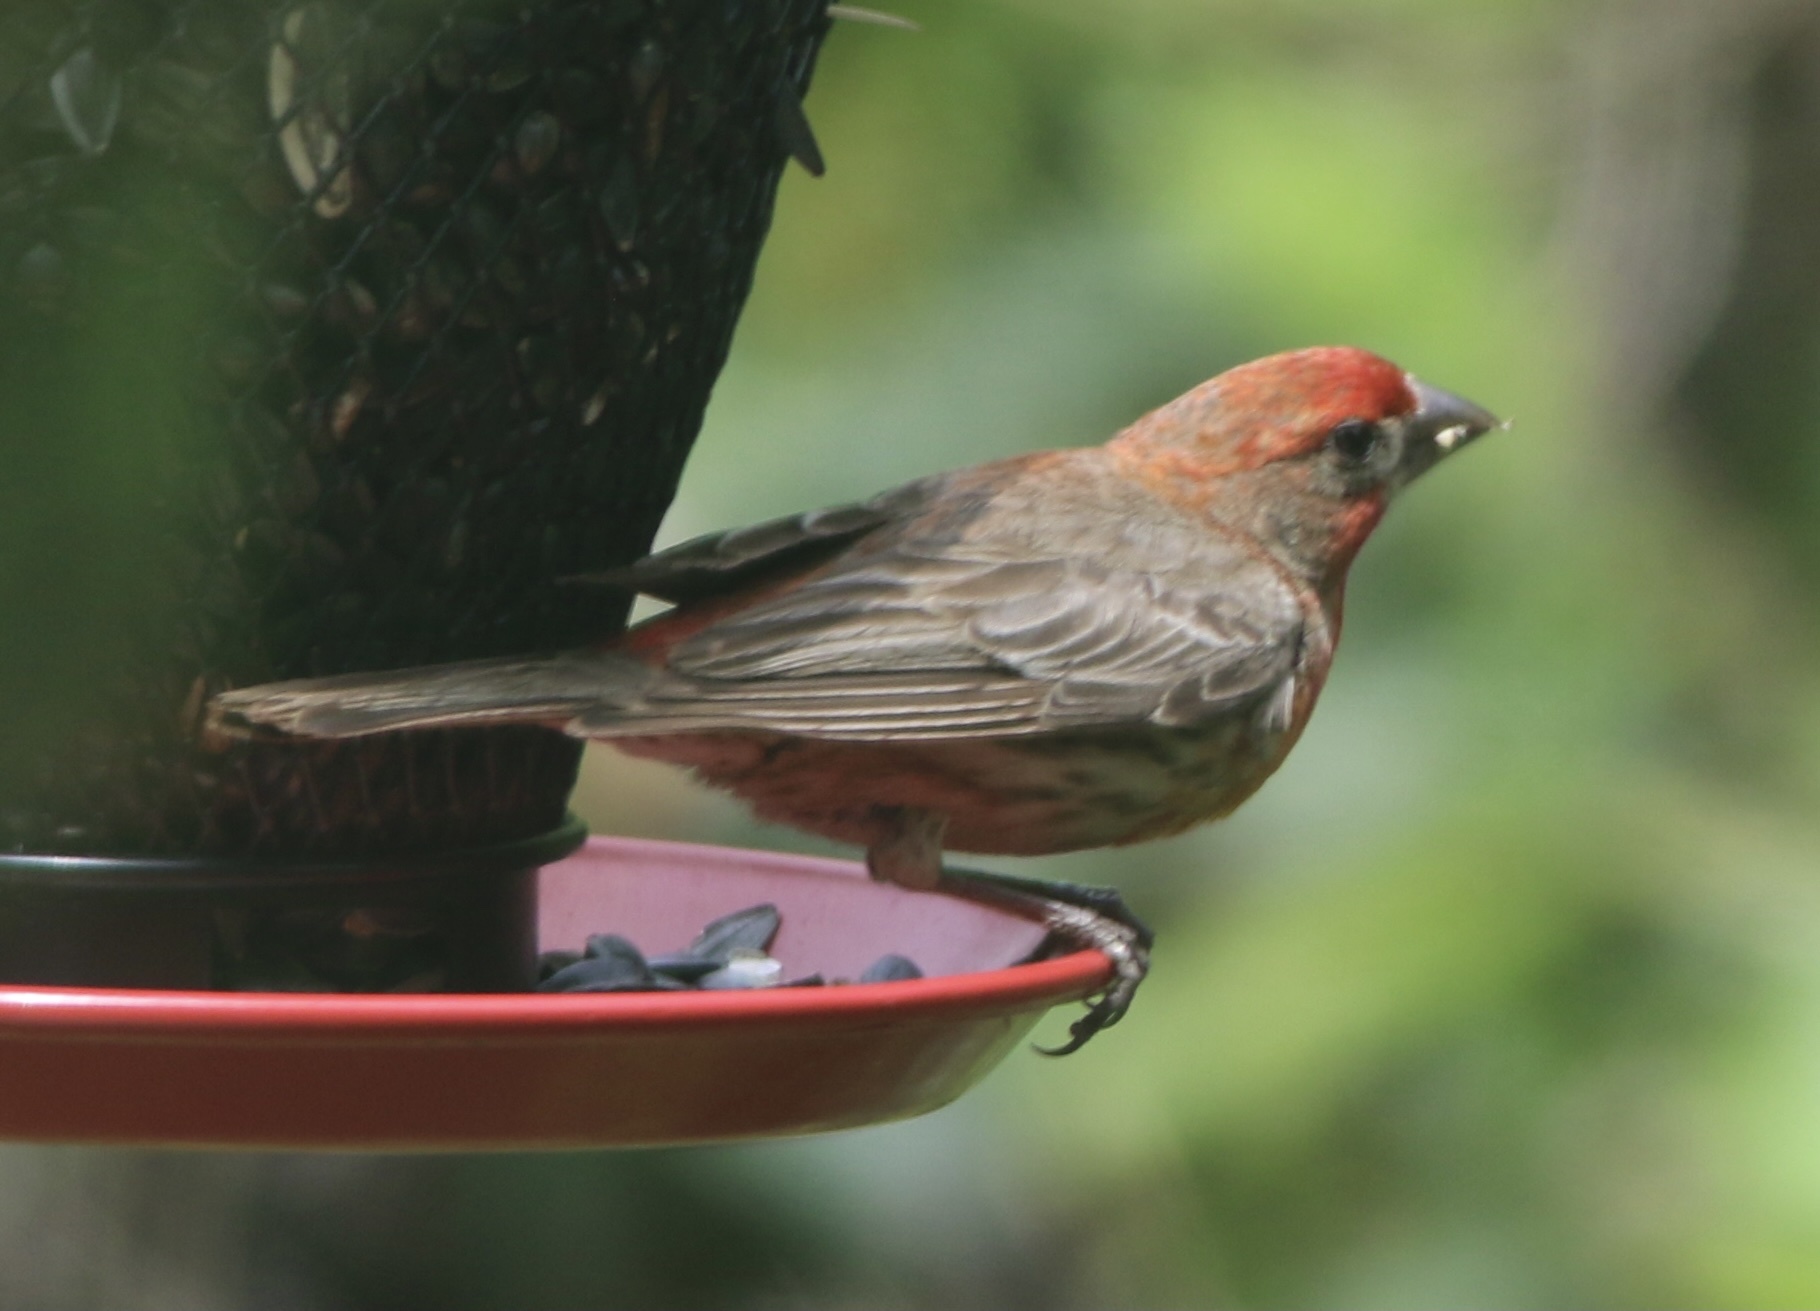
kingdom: Animalia
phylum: Chordata
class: Aves
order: Passeriformes
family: Fringillidae
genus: Haemorhous
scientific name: Haemorhous mexicanus
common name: House finch
